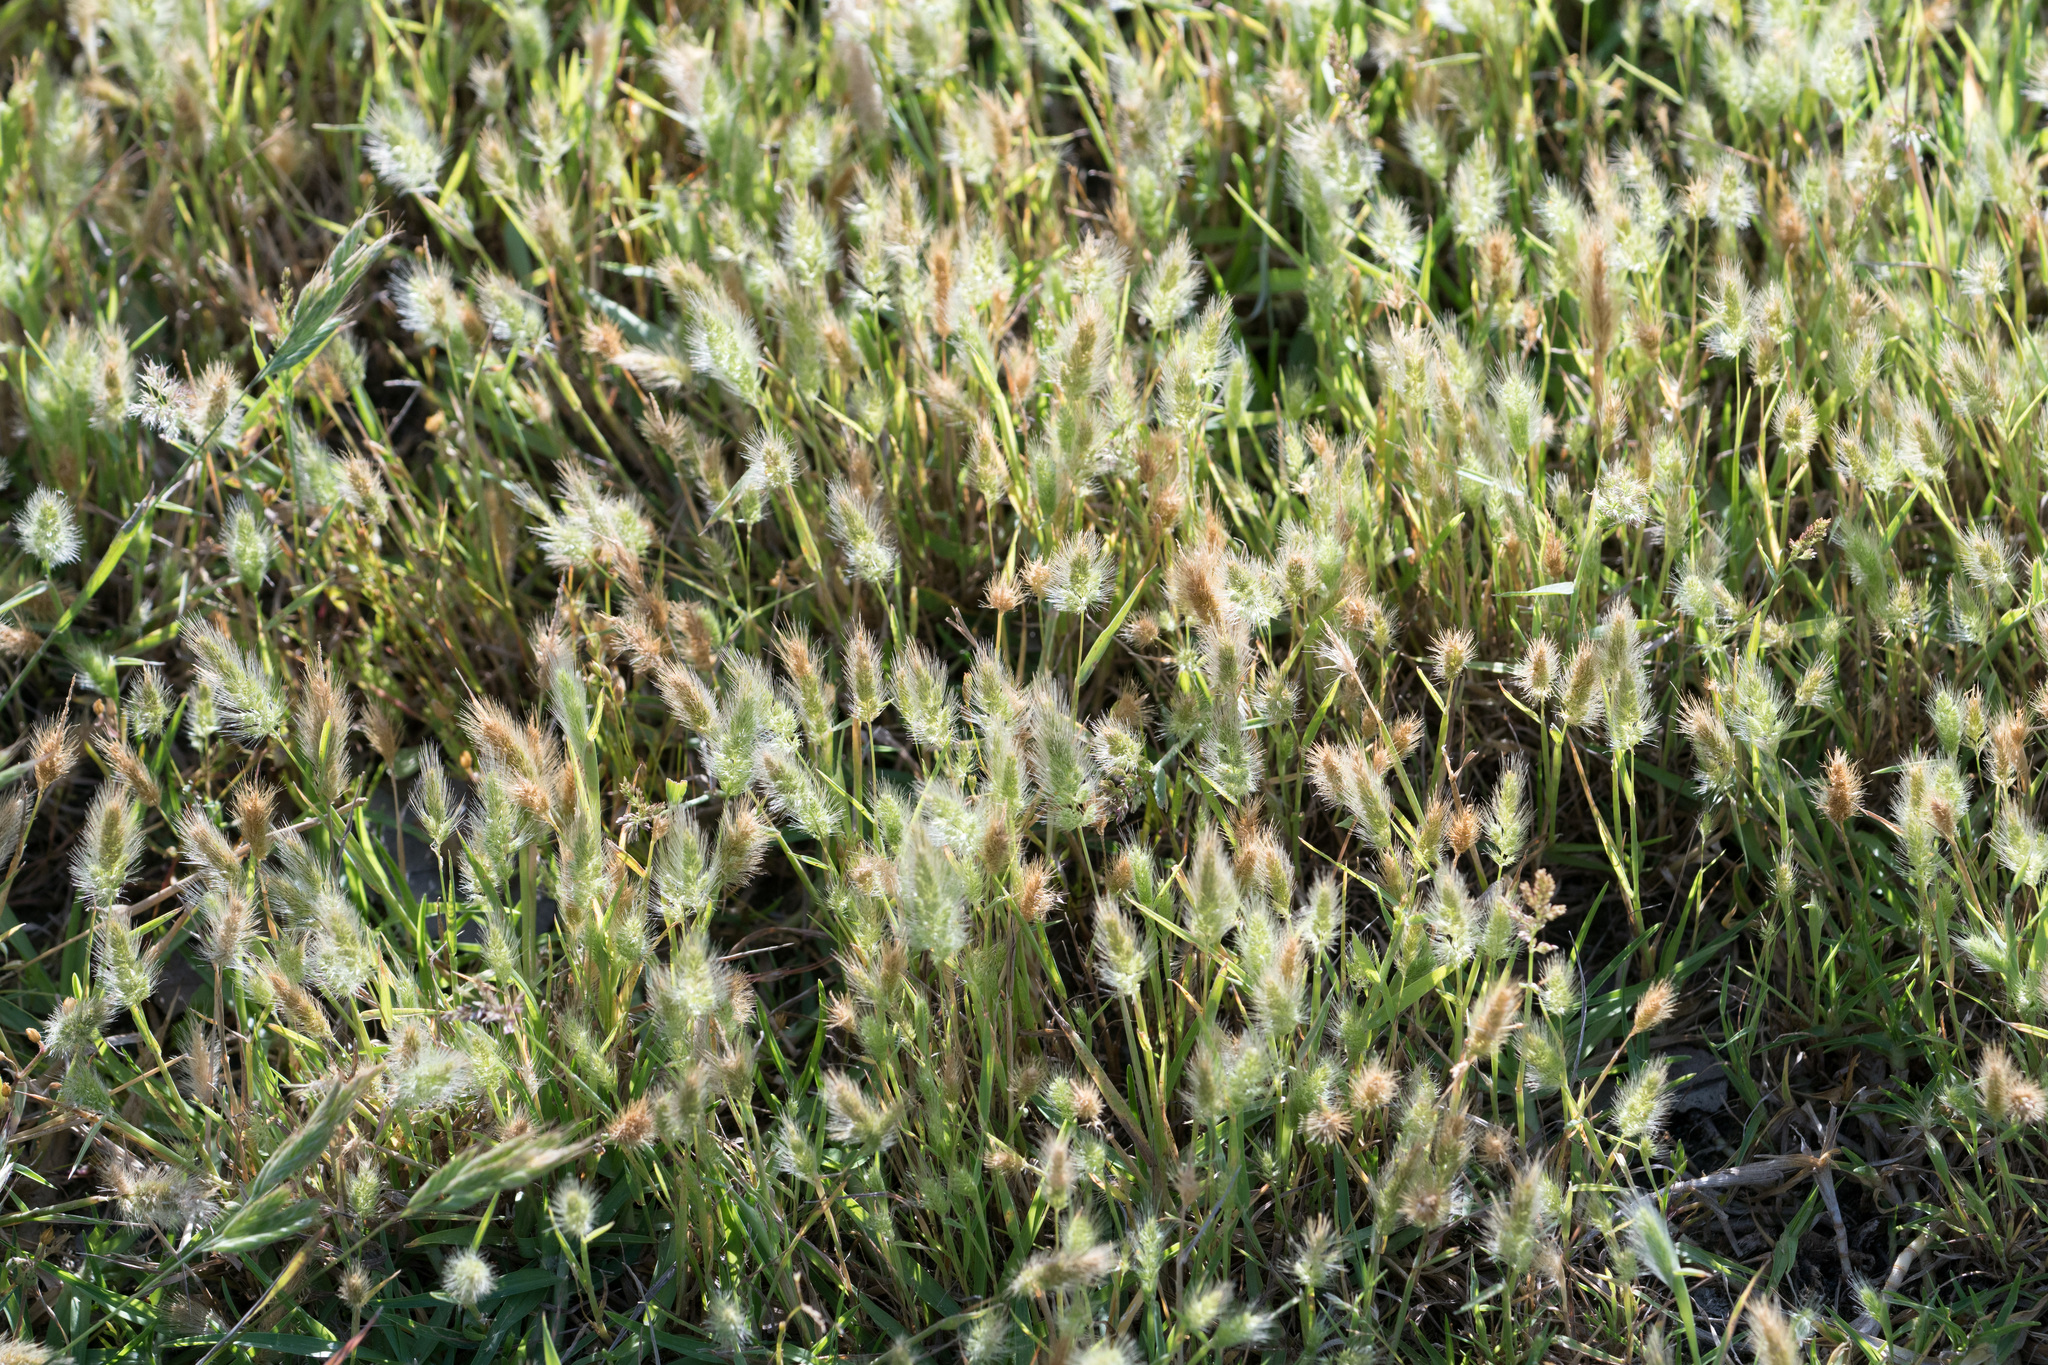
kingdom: Plantae
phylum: Tracheophyta
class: Liliopsida
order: Poales
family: Poaceae
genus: Polypogon
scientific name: Polypogon monspeliensis
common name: Annual rabbitsfoot grass
